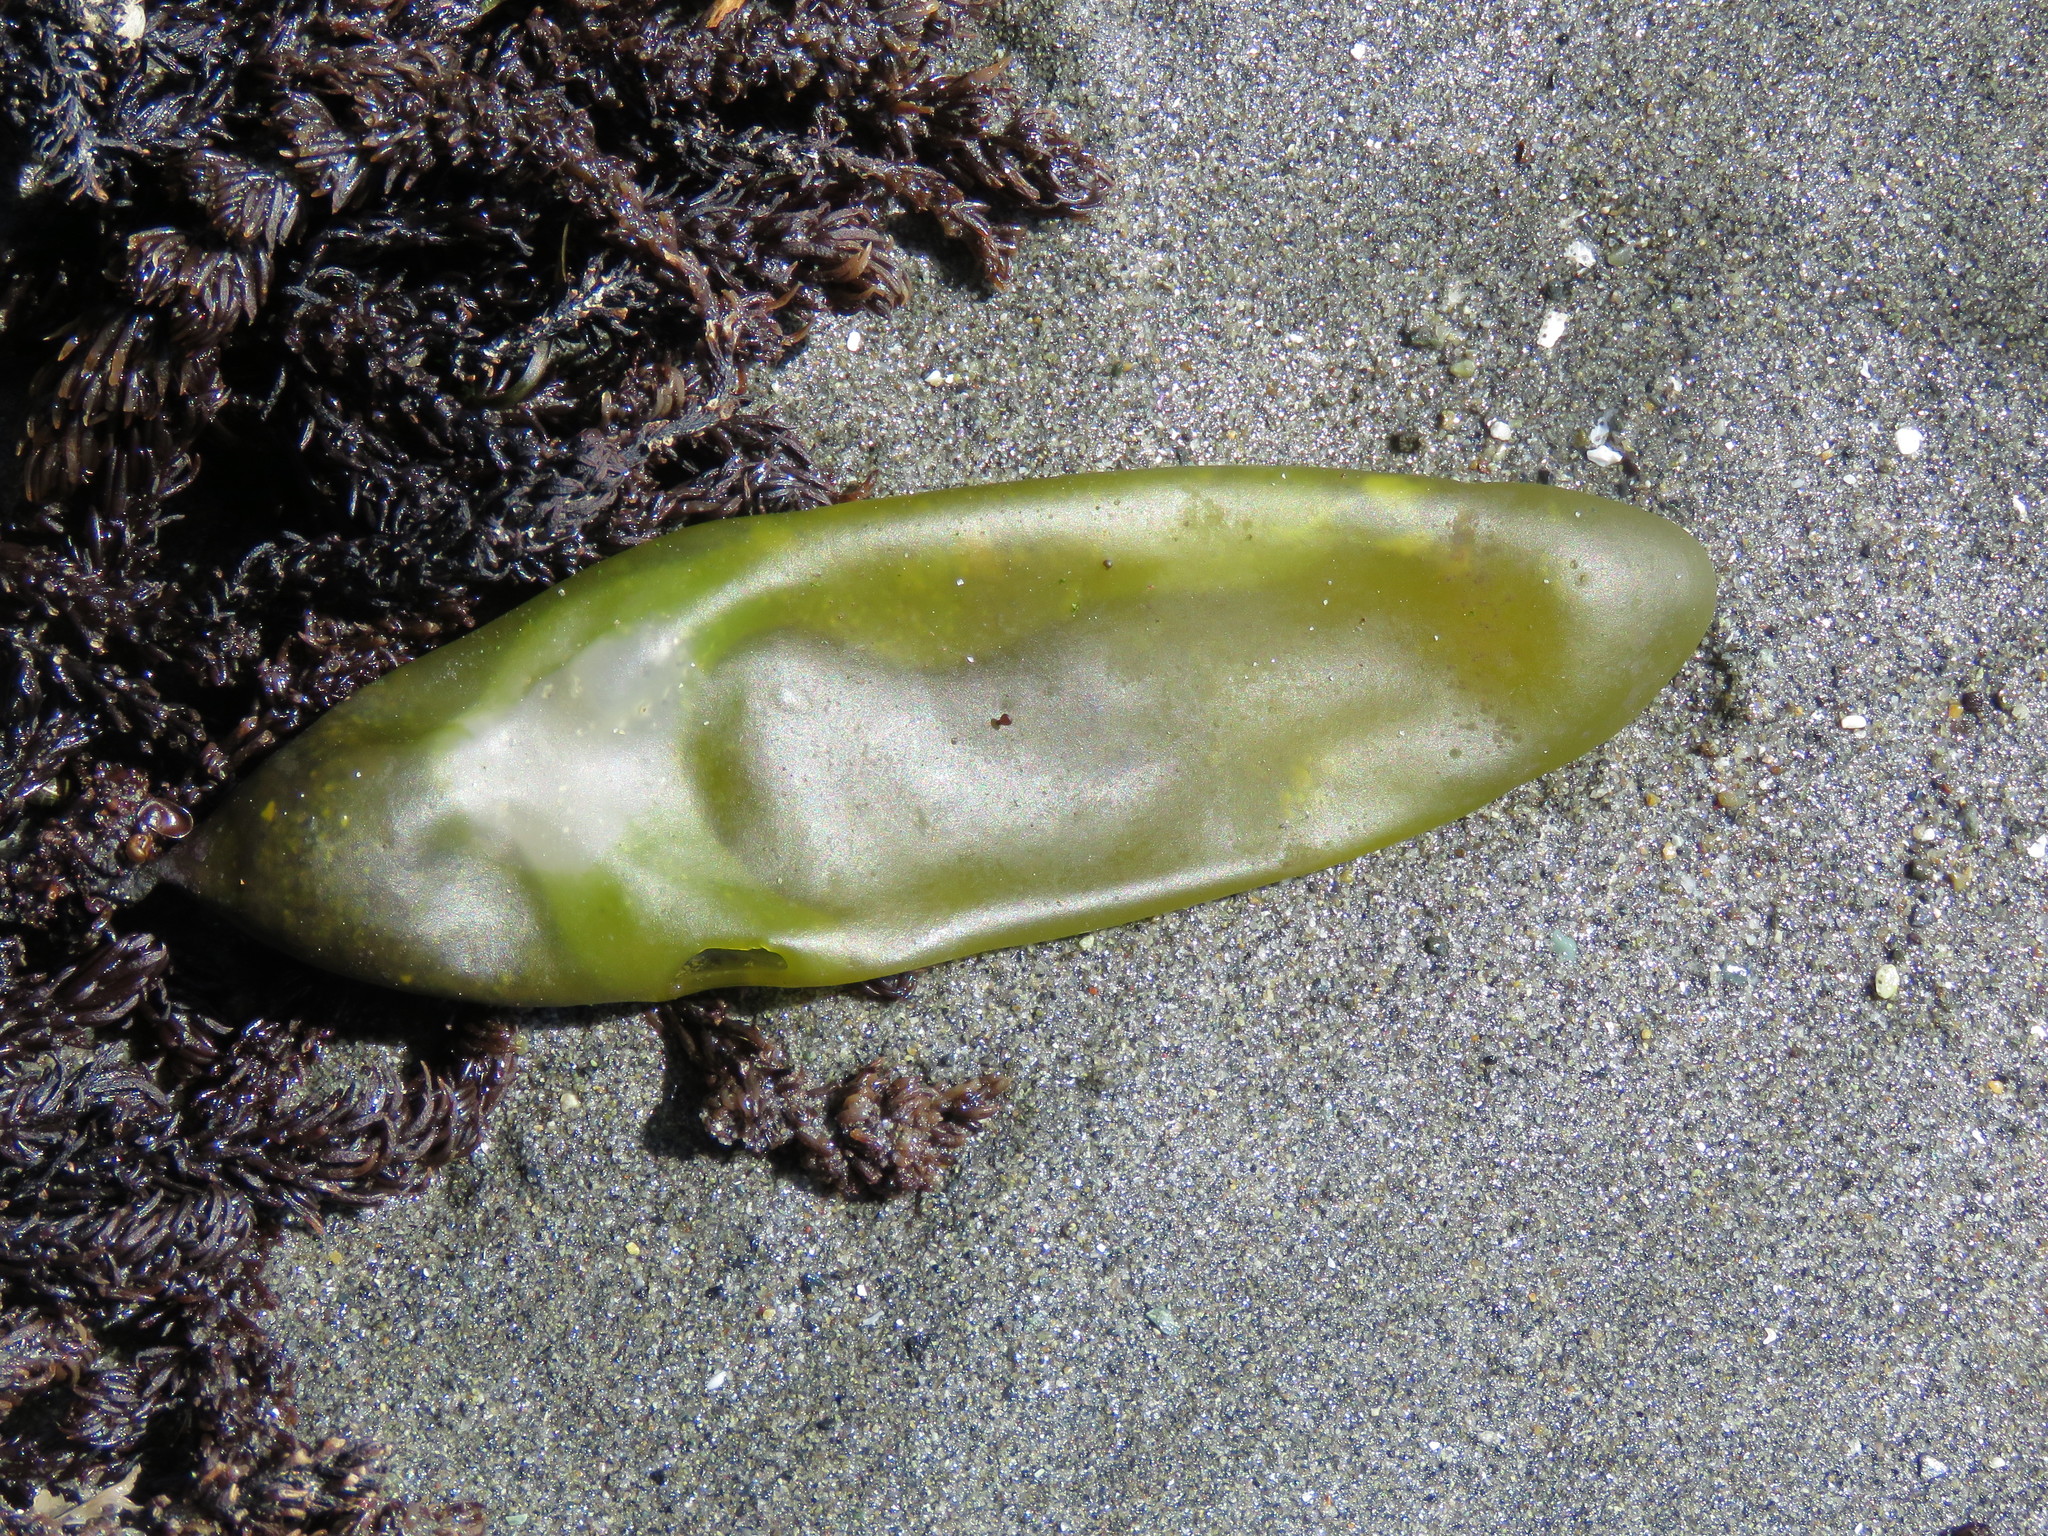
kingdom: Plantae
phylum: Rhodophyta
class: Florideophyceae
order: Palmariales
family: Palmariaceae
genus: Halosaccion
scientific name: Halosaccion glandiforme
